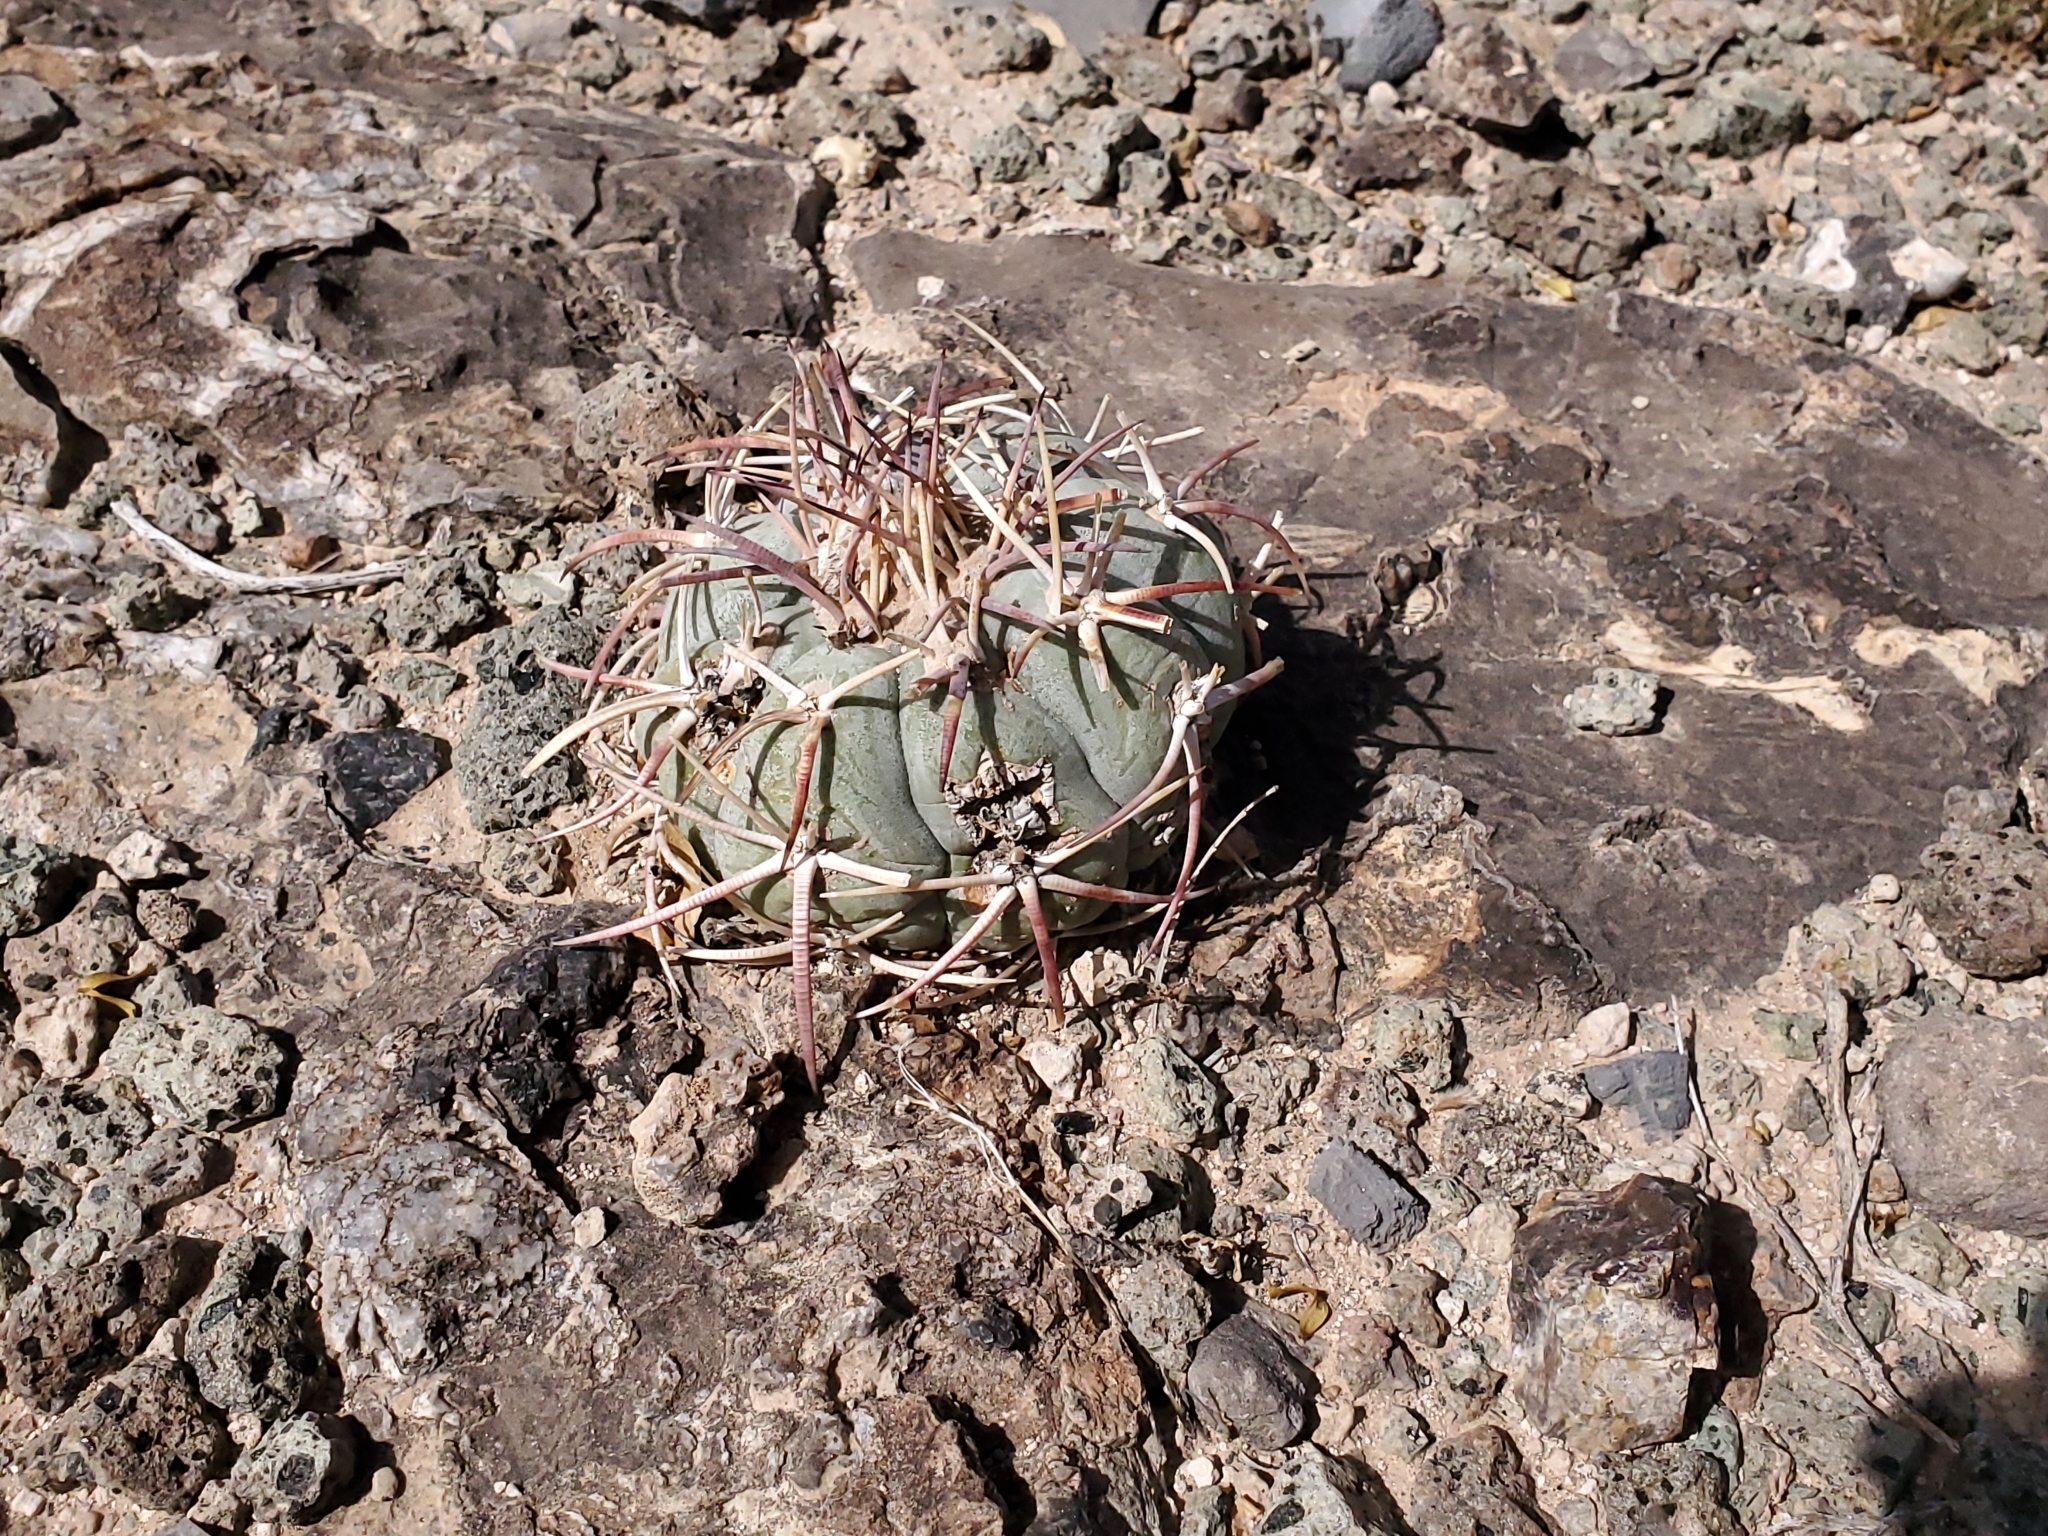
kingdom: Plantae
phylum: Tracheophyta
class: Magnoliopsida
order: Caryophyllales
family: Cactaceae
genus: Echinocactus
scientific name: Echinocactus horizonthalonius
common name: Devilshead
